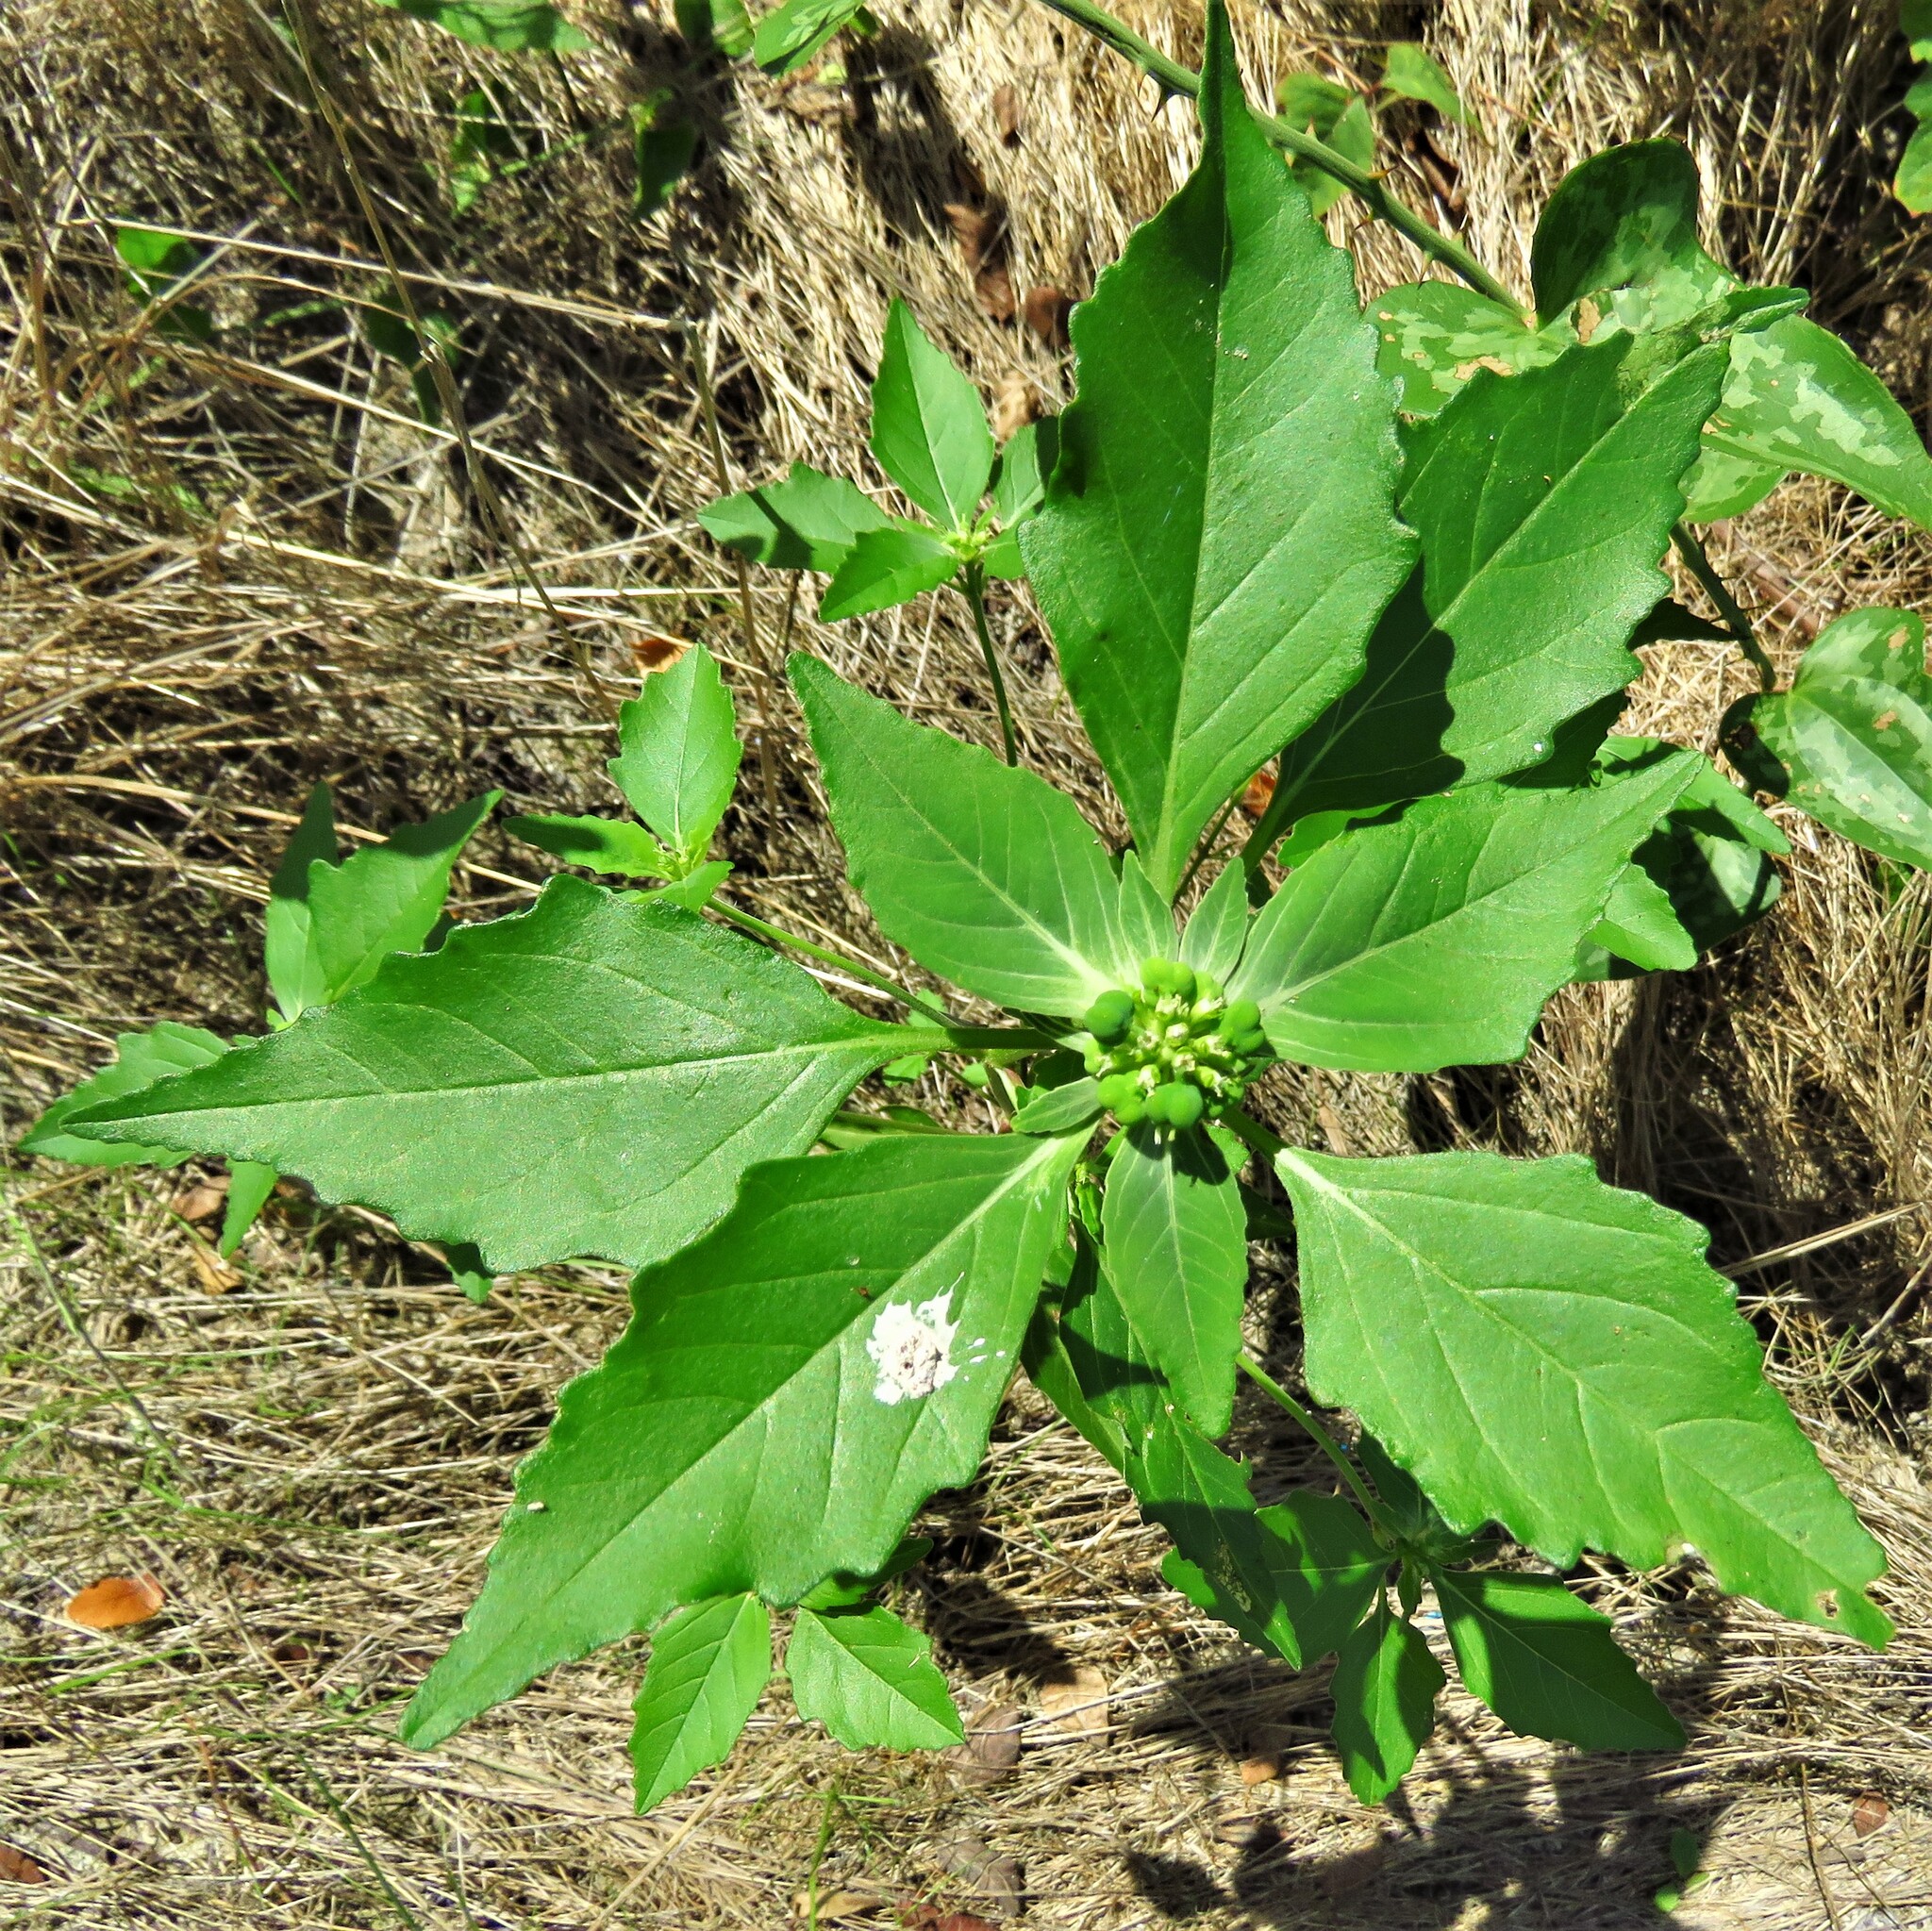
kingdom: Plantae
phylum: Tracheophyta
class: Magnoliopsida
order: Malpighiales
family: Euphorbiaceae
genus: Euphorbia
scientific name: Euphorbia dentata
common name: Dentate spurge
